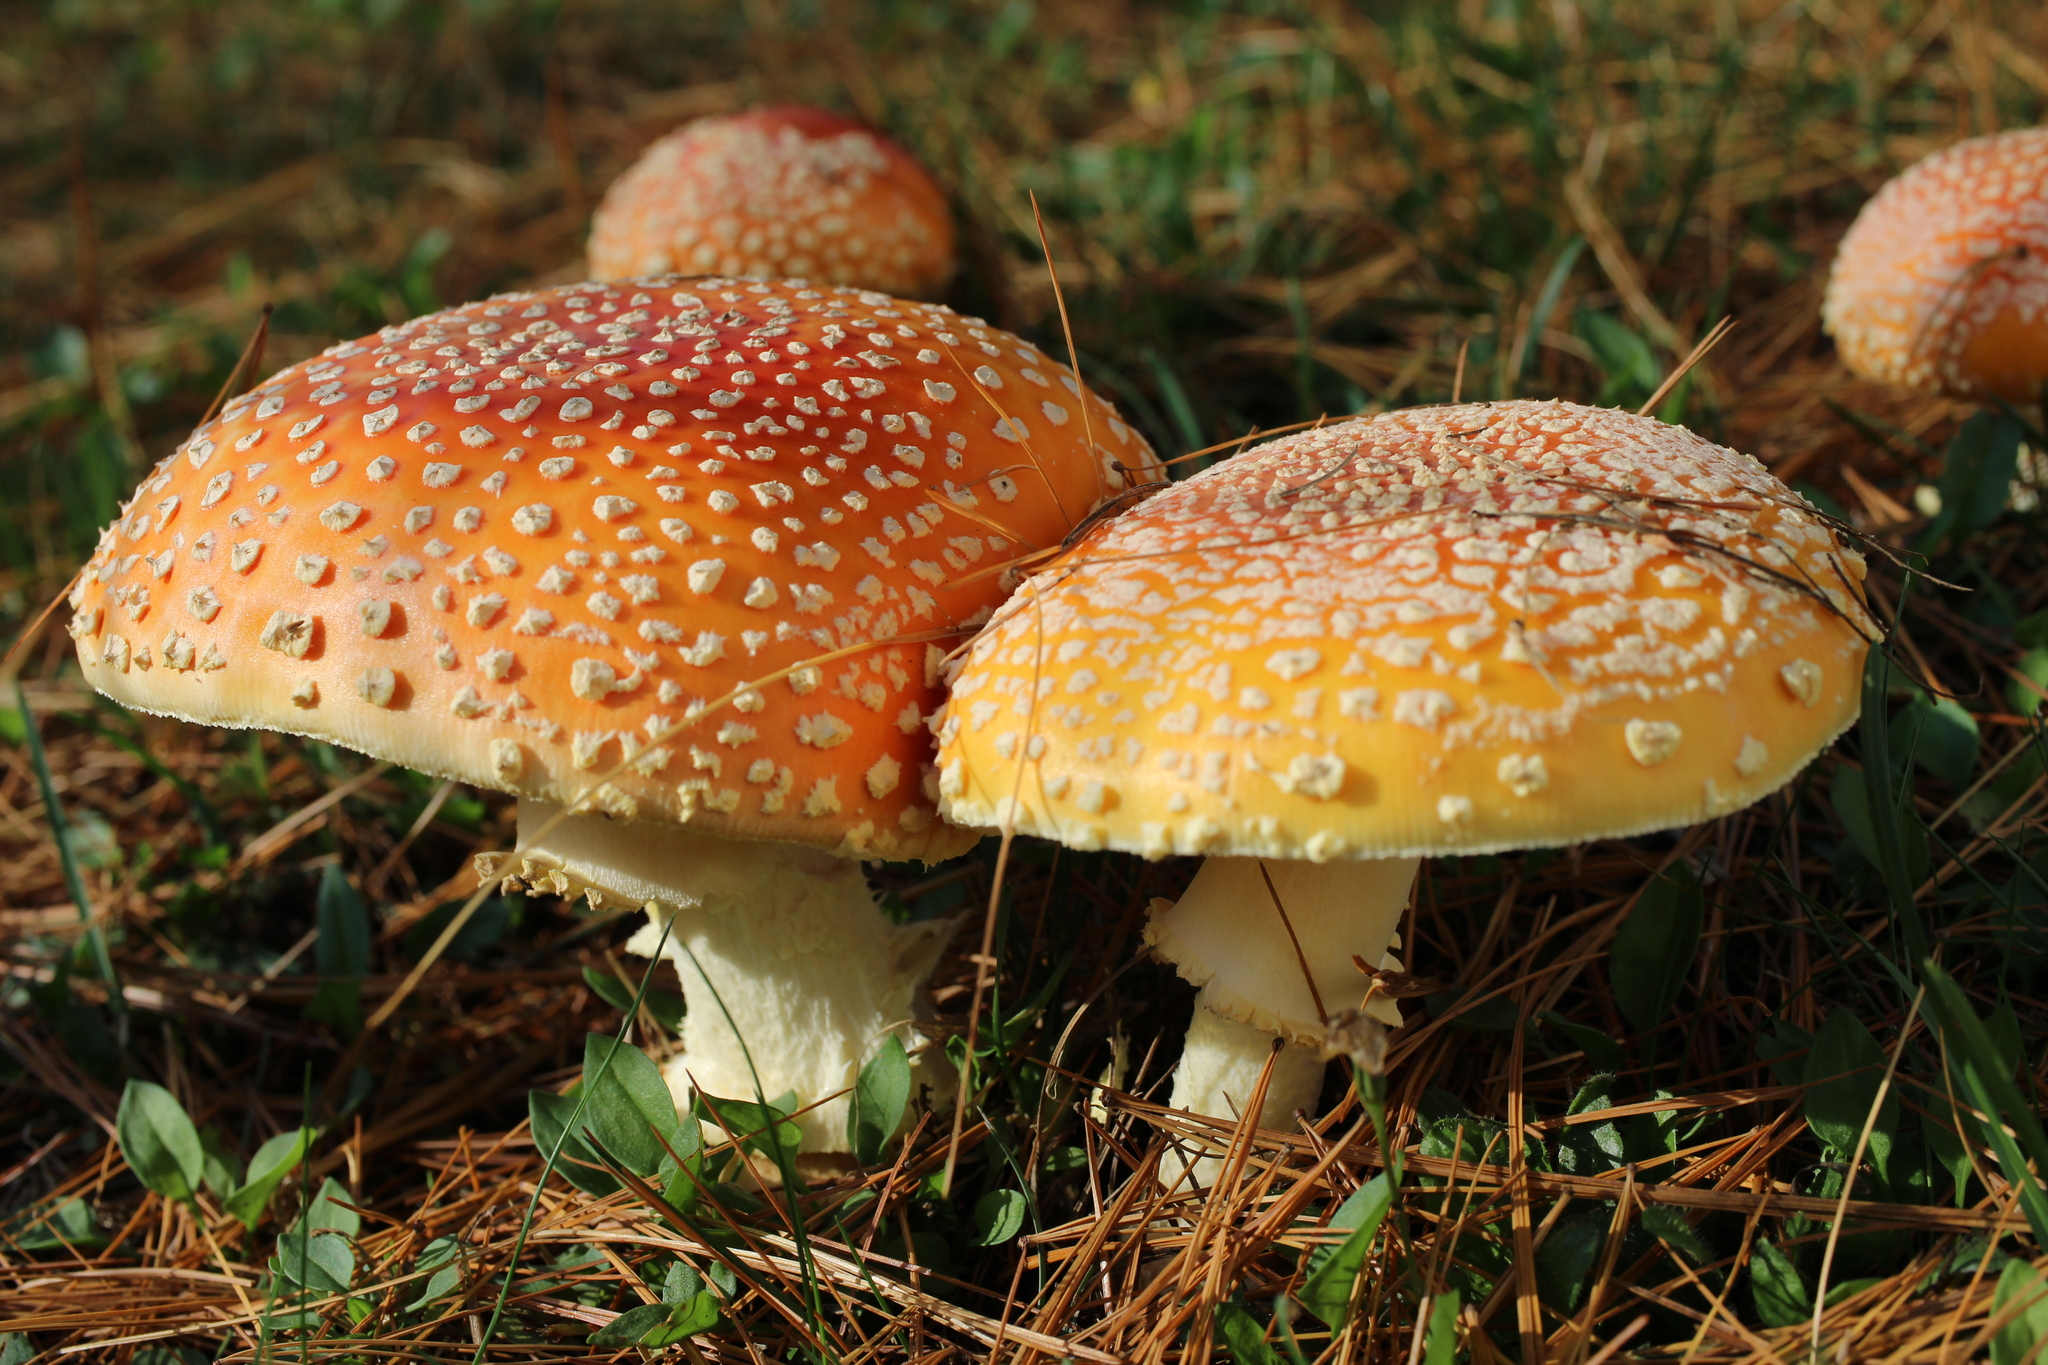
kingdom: Fungi
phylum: Basidiomycota
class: Agaricomycetes
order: Agaricales
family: Amanitaceae
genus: Amanita
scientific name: Amanita muscaria
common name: Fly agaric
